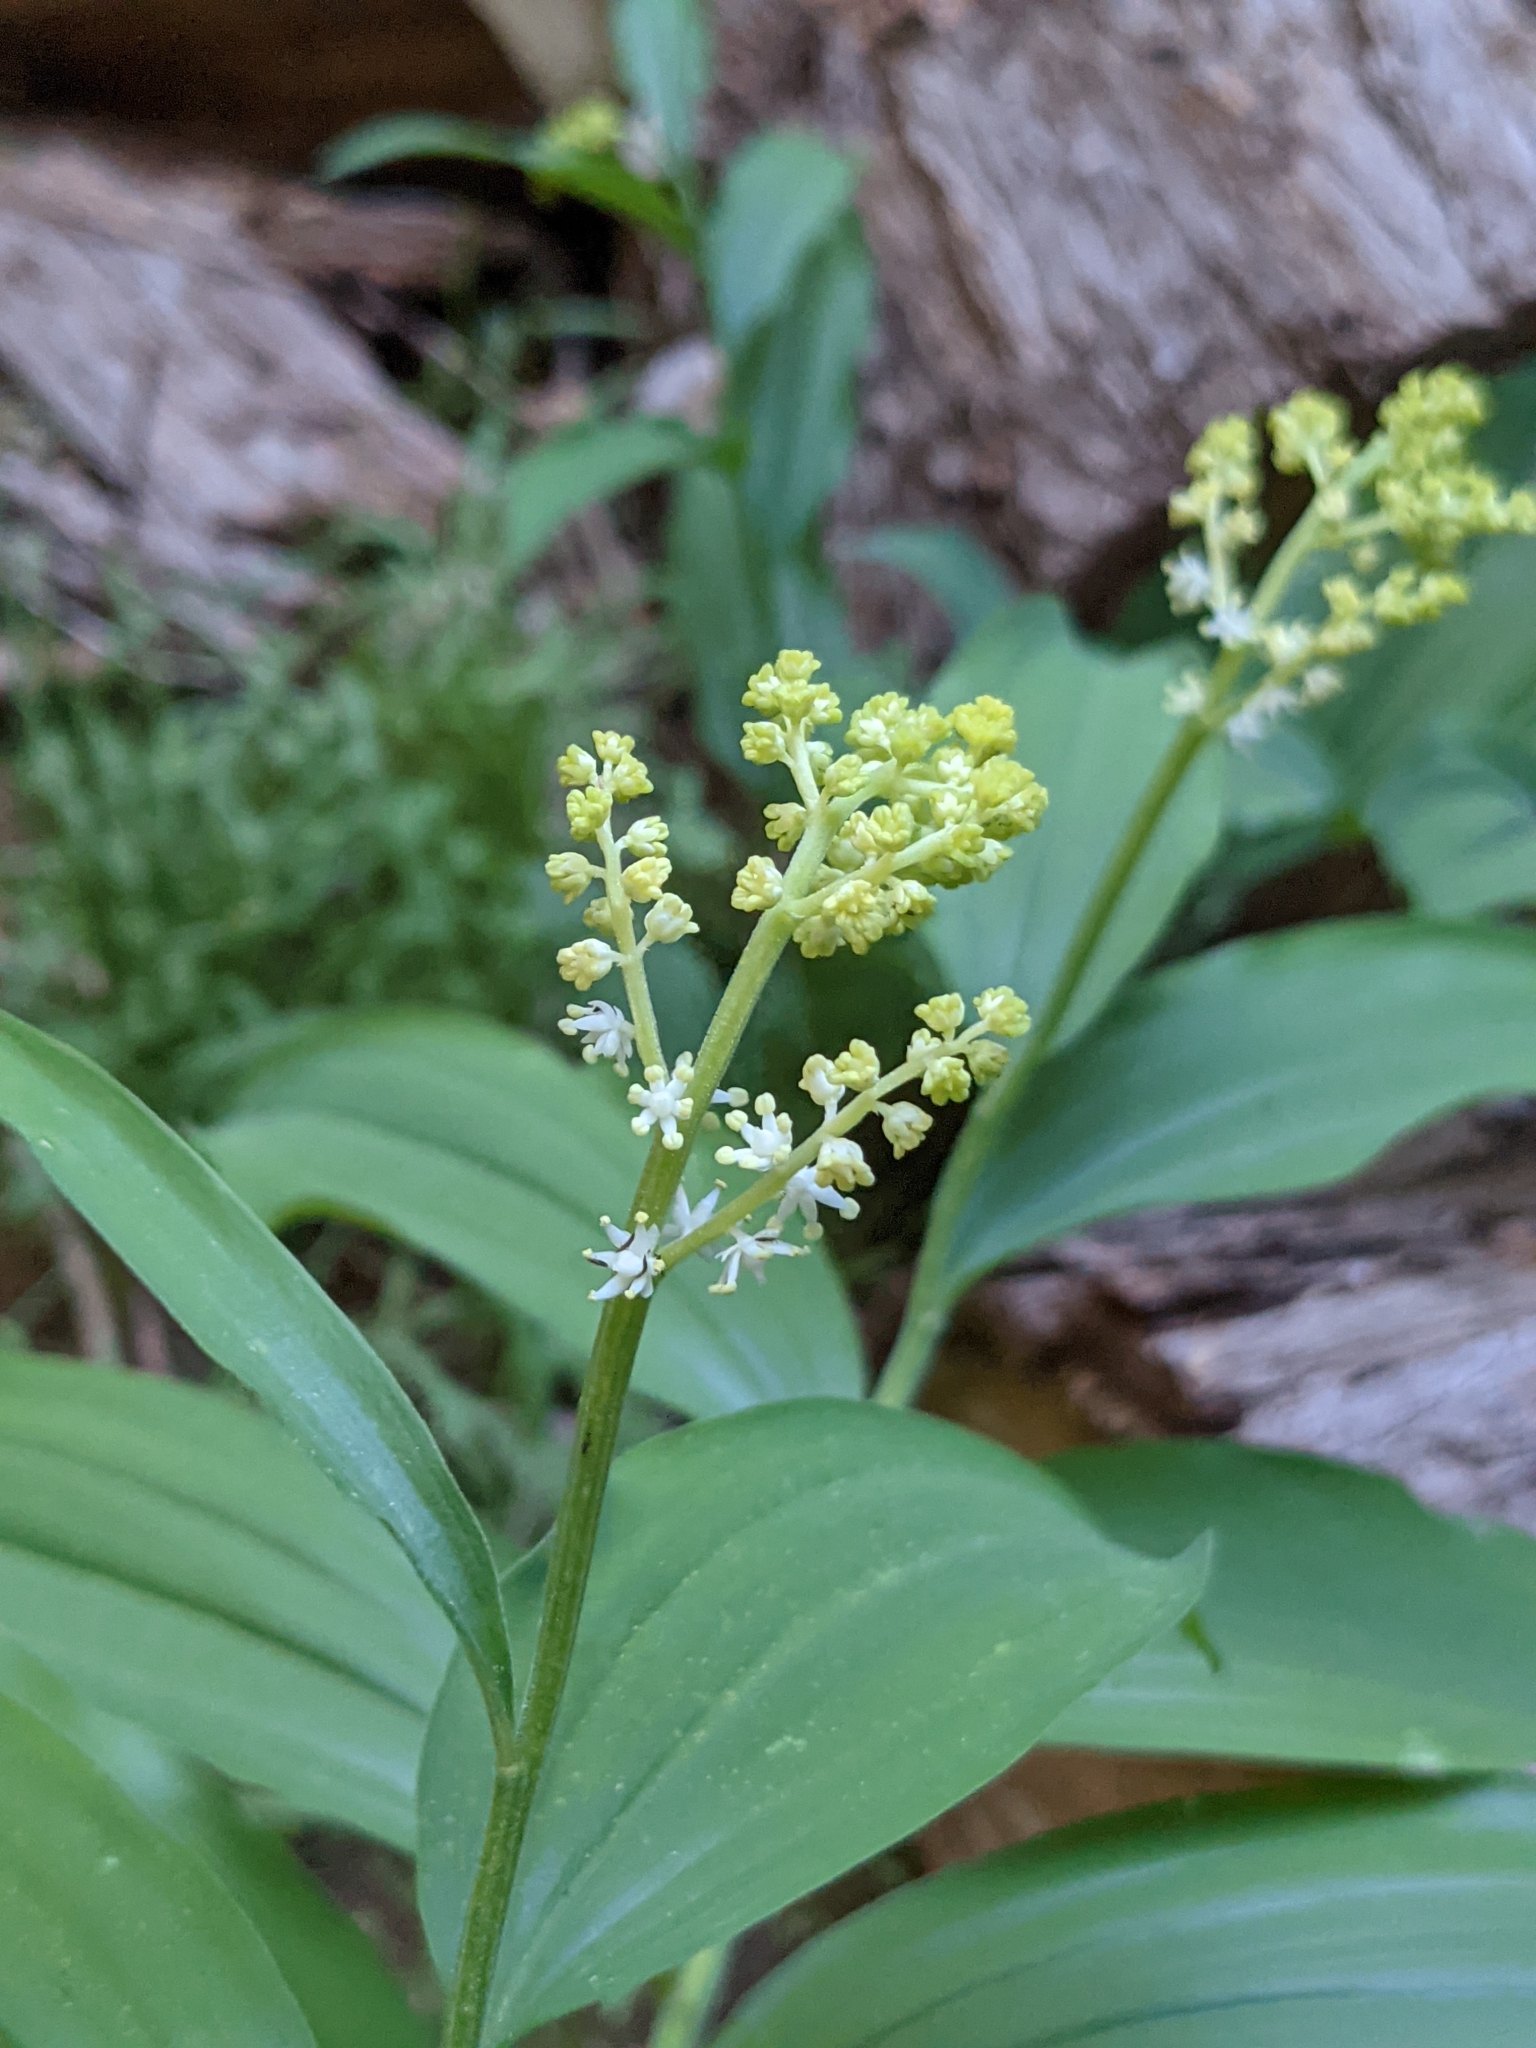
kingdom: Plantae
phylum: Tracheophyta
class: Liliopsida
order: Asparagales
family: Asparagaceae
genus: Maianthemum
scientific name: Maianthemum racemosum
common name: False spikenard
